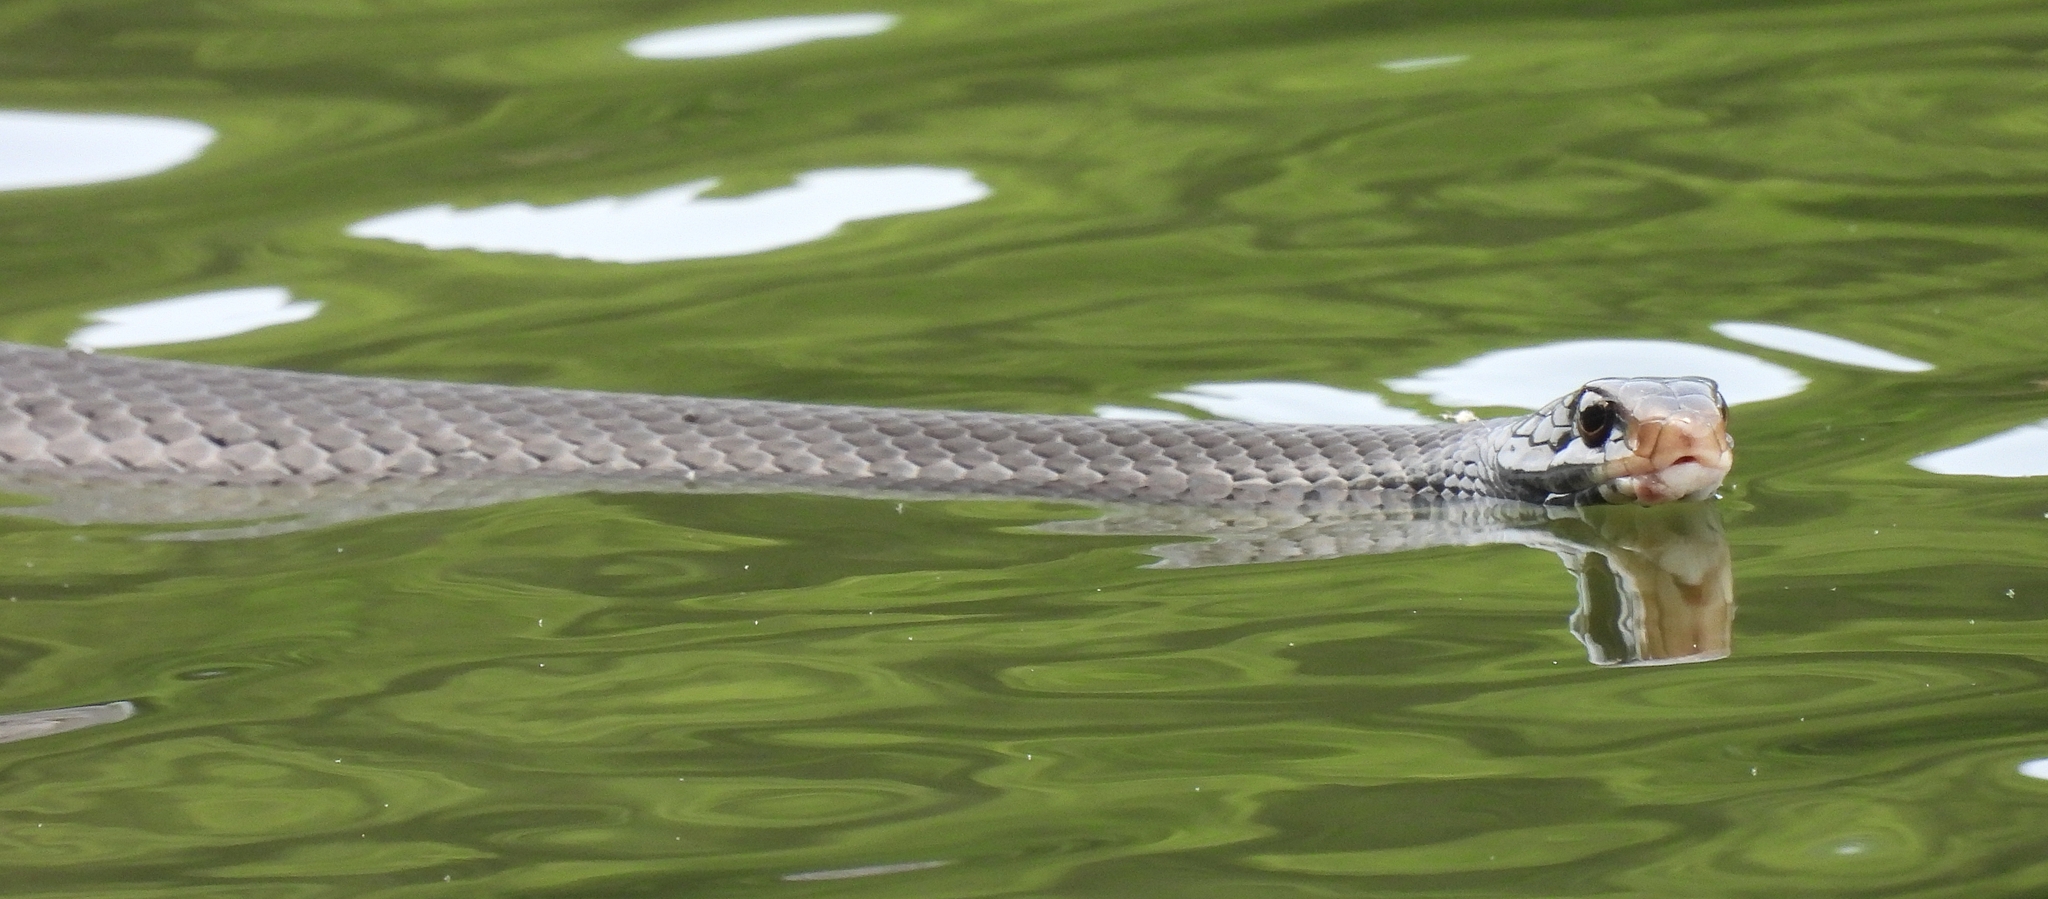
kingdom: Animalia
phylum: Chordata
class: Squamata
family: Colubridae
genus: Coluber
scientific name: Coluber constrictor
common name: Eastern racer
